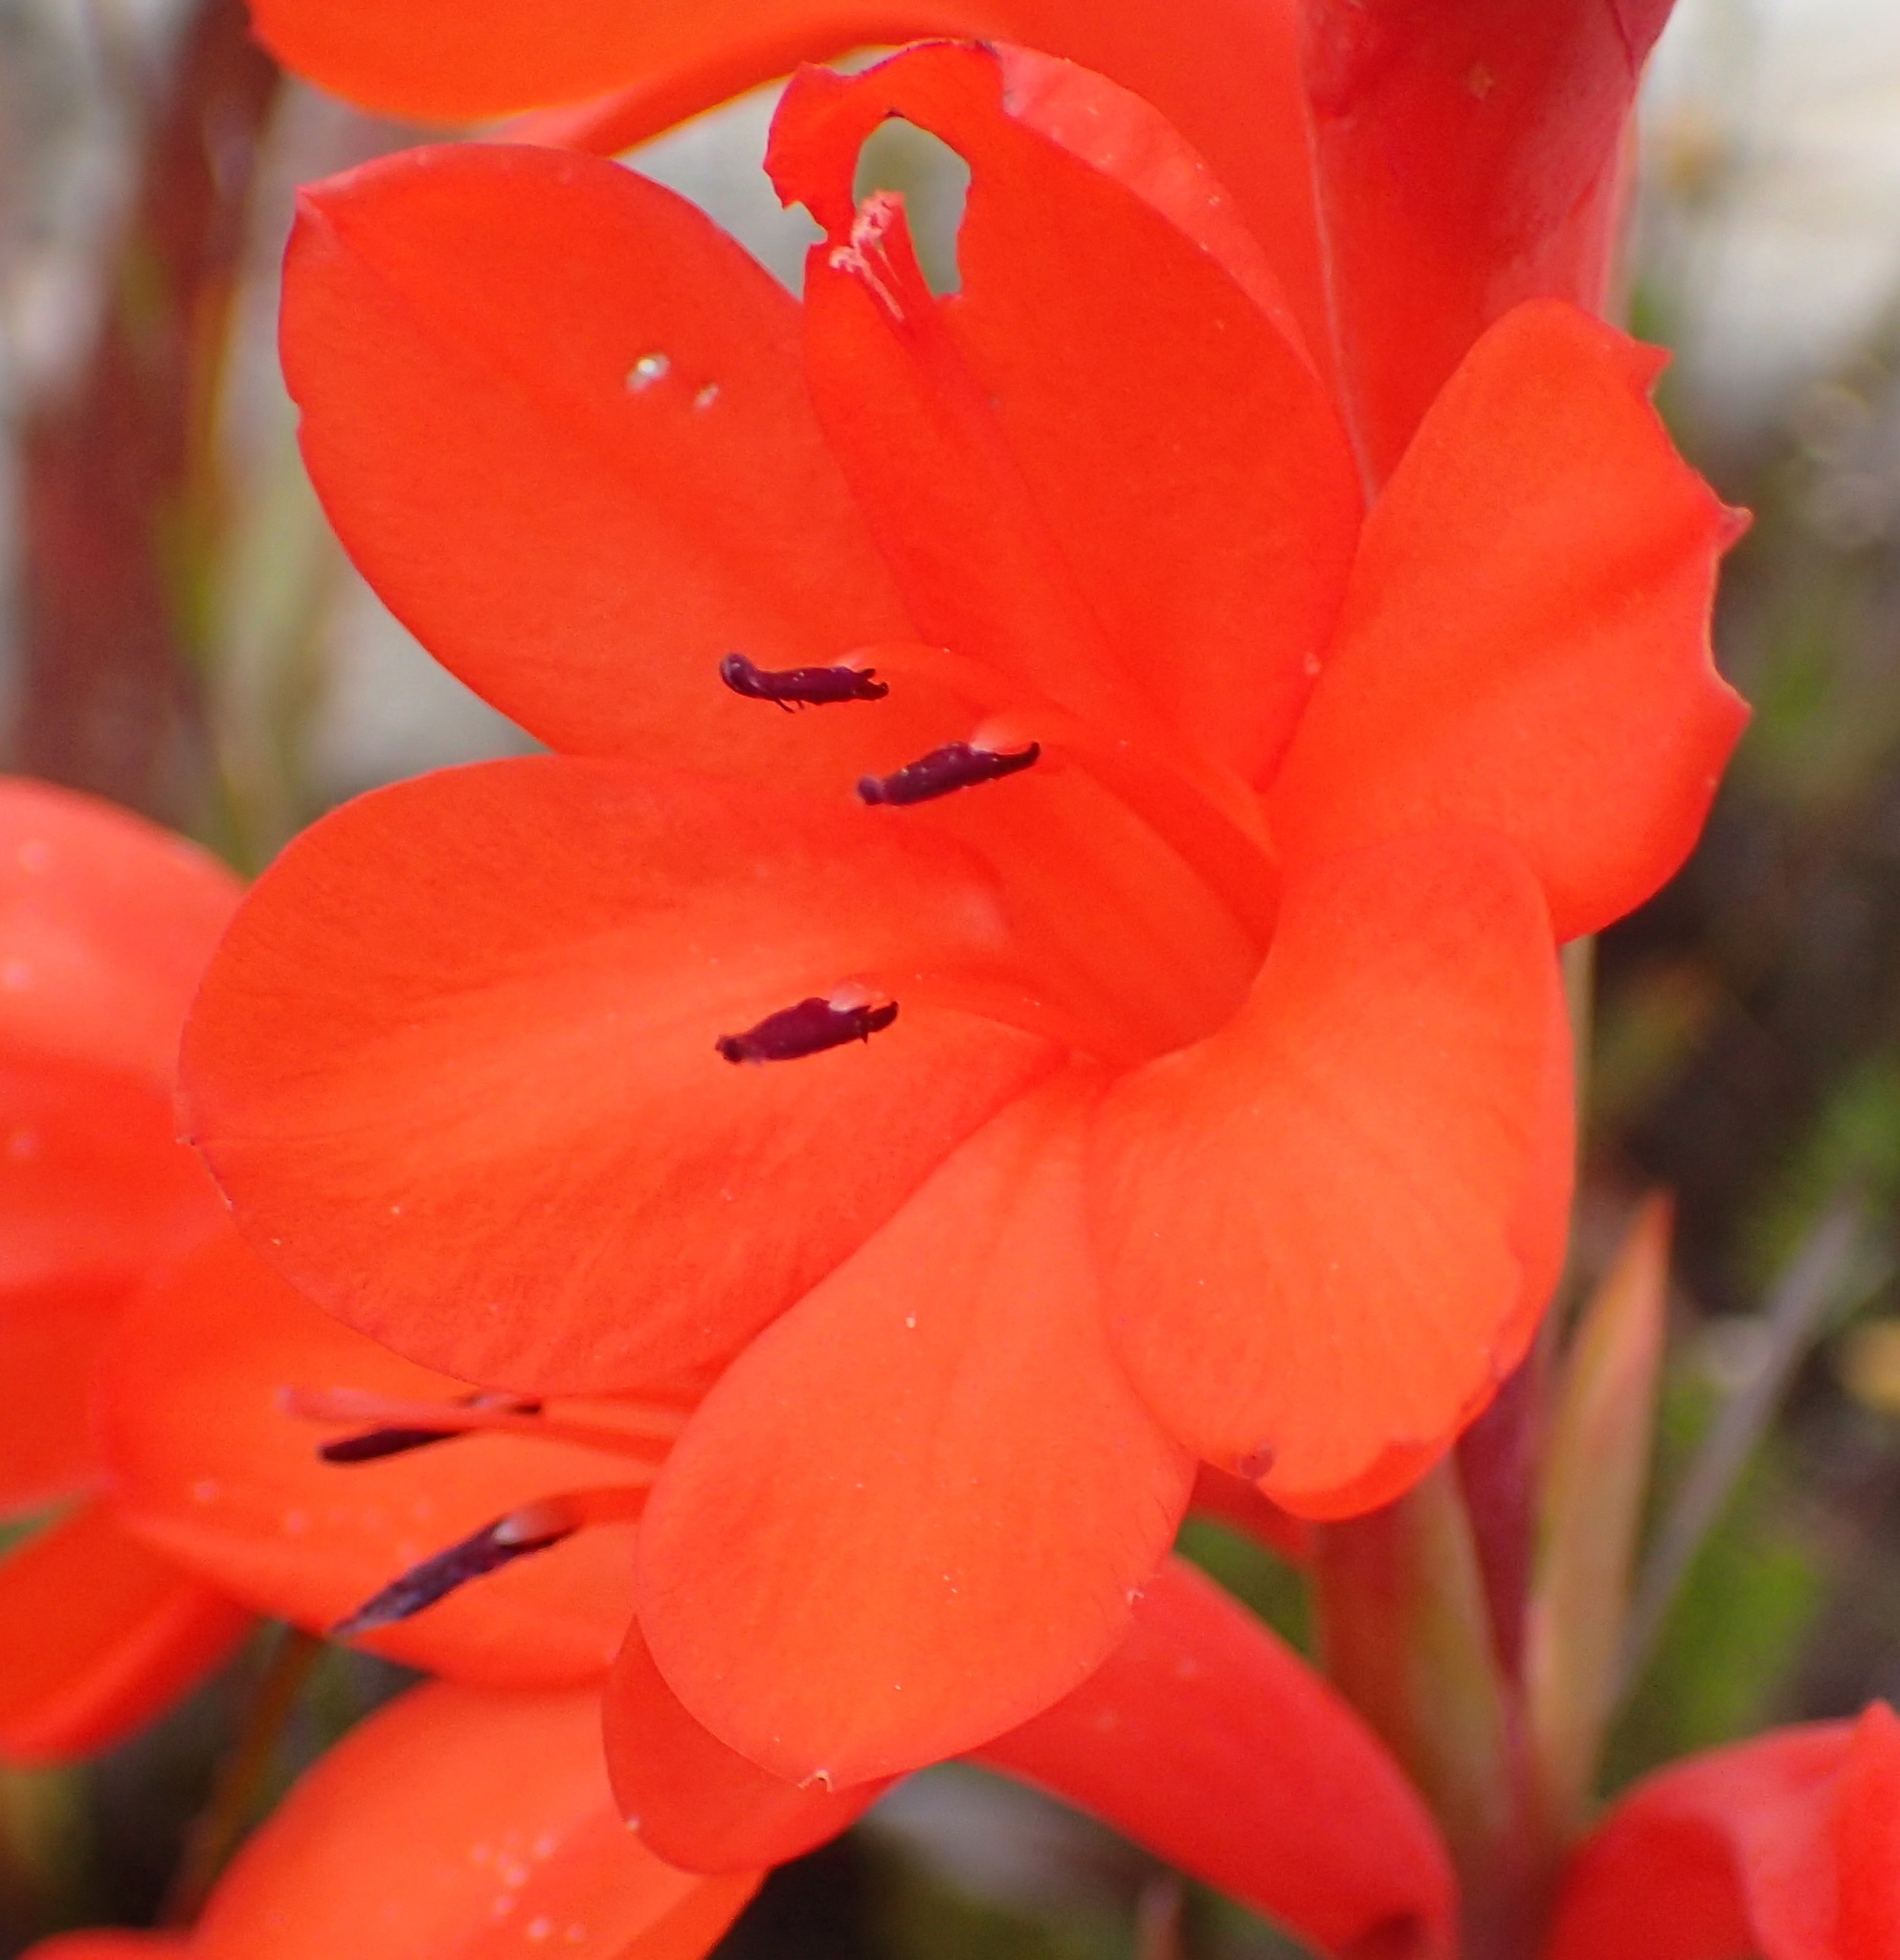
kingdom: Plantae
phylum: Tracheophyta
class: Liliopsida
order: Asparagales
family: Iridaceae
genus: Watsonia
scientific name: Watsonia schlechteri
